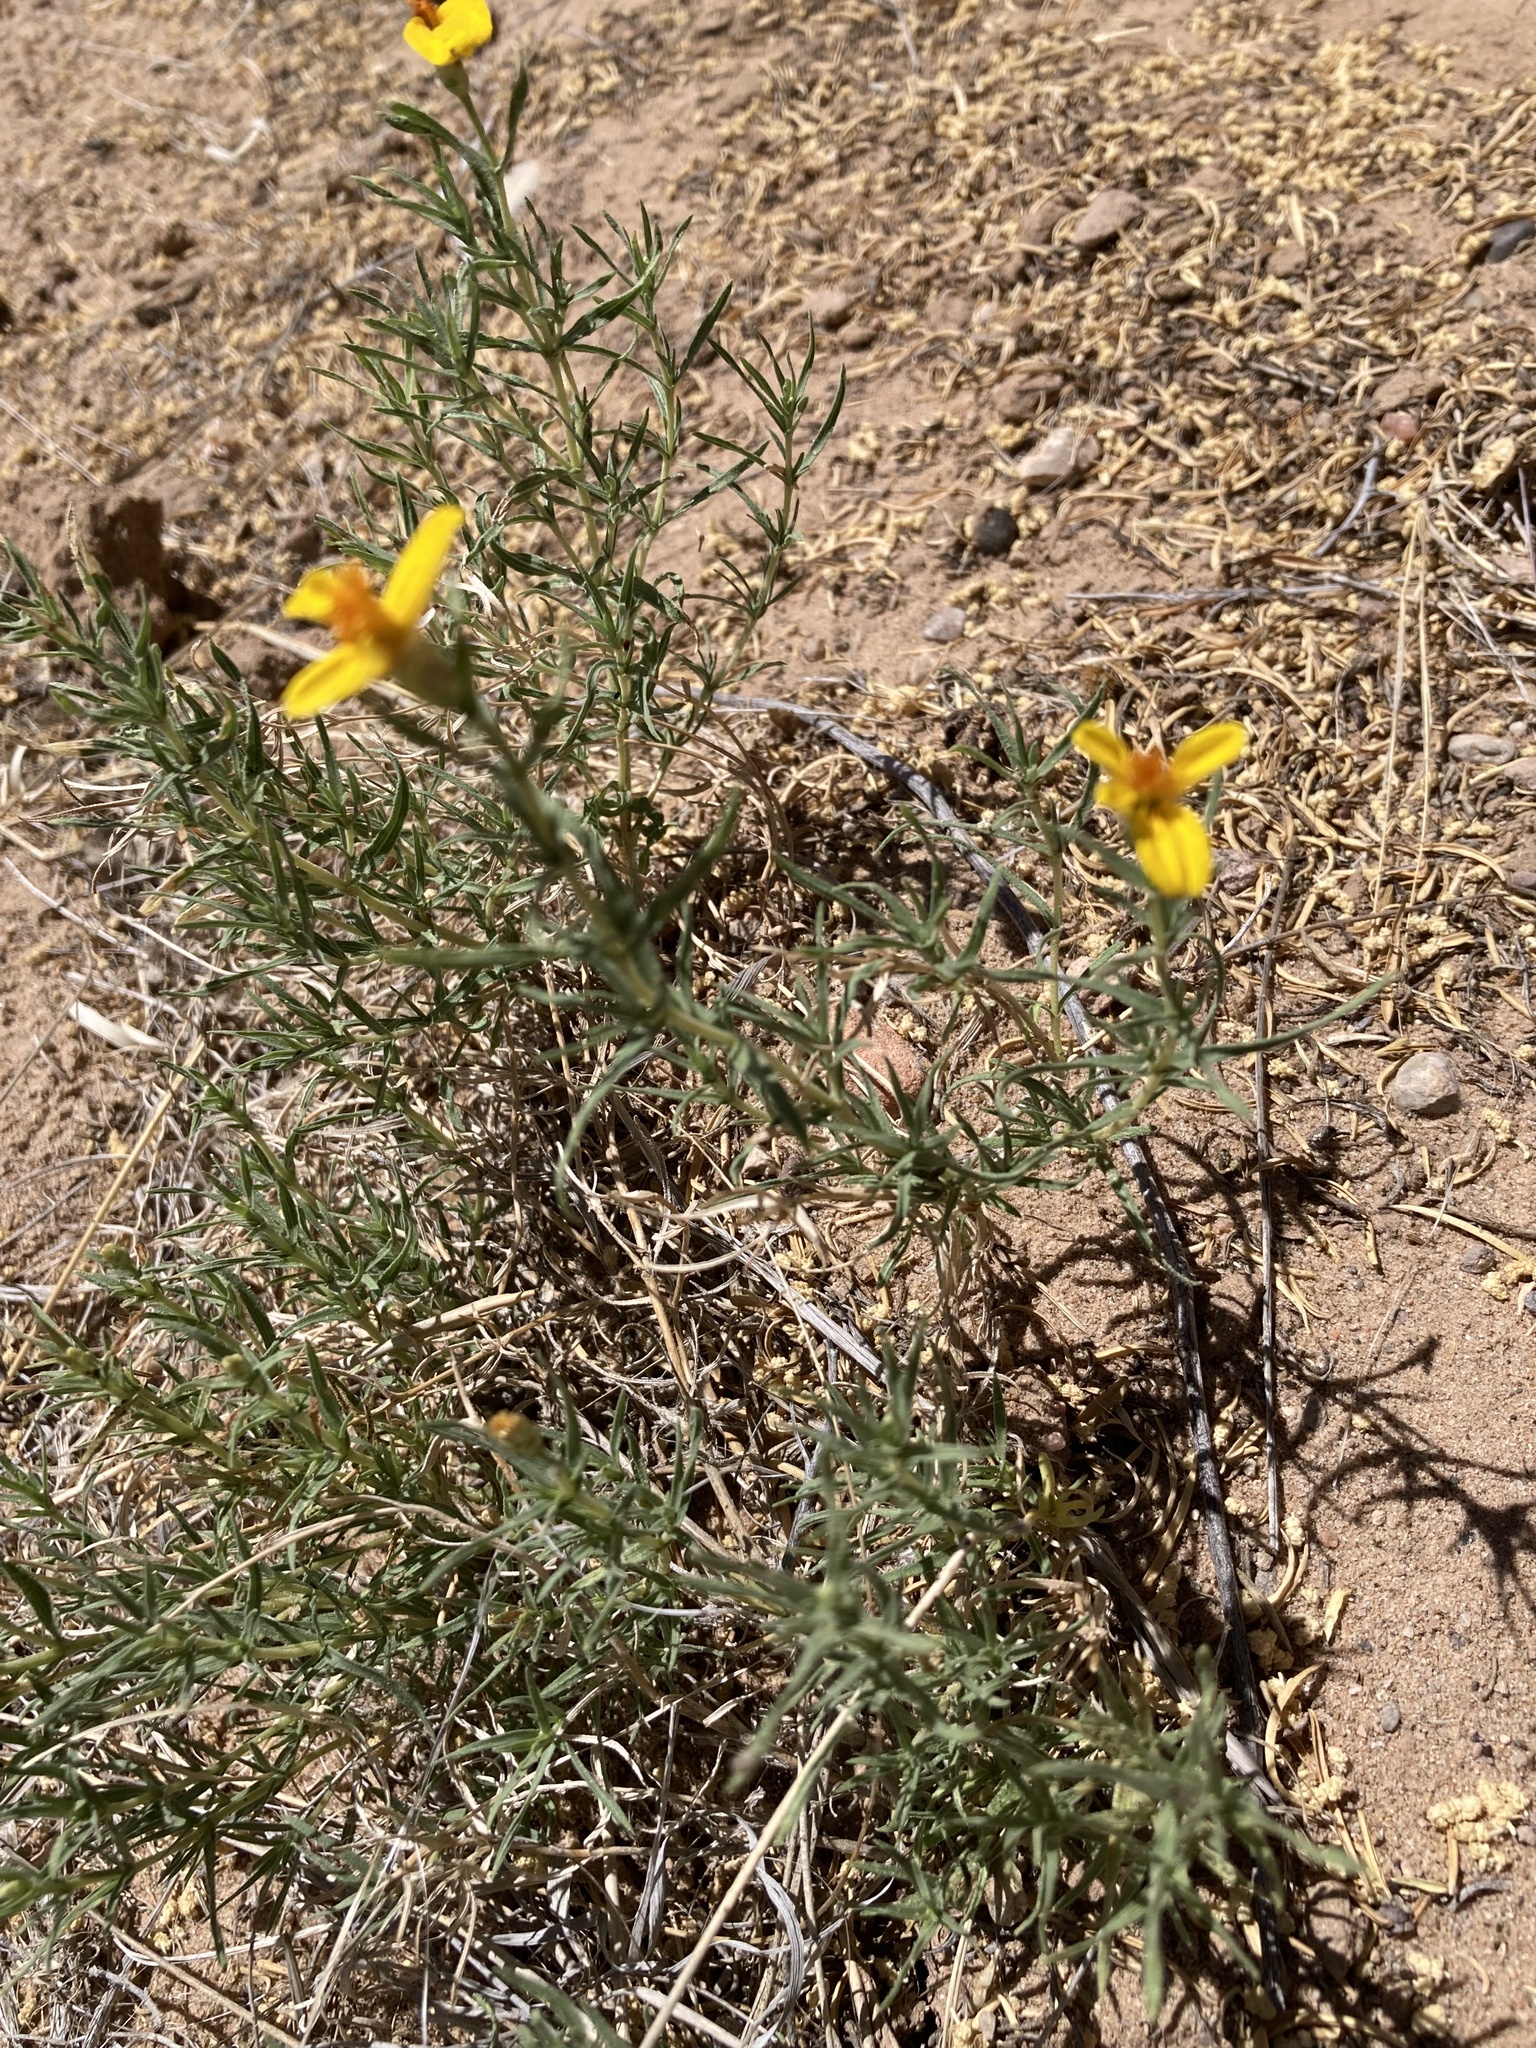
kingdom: Plantae
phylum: Tracheophyta
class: Magnoliopsida
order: Asterales
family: Asteraceae
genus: Zinnia
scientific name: Zinnia grandiflora
